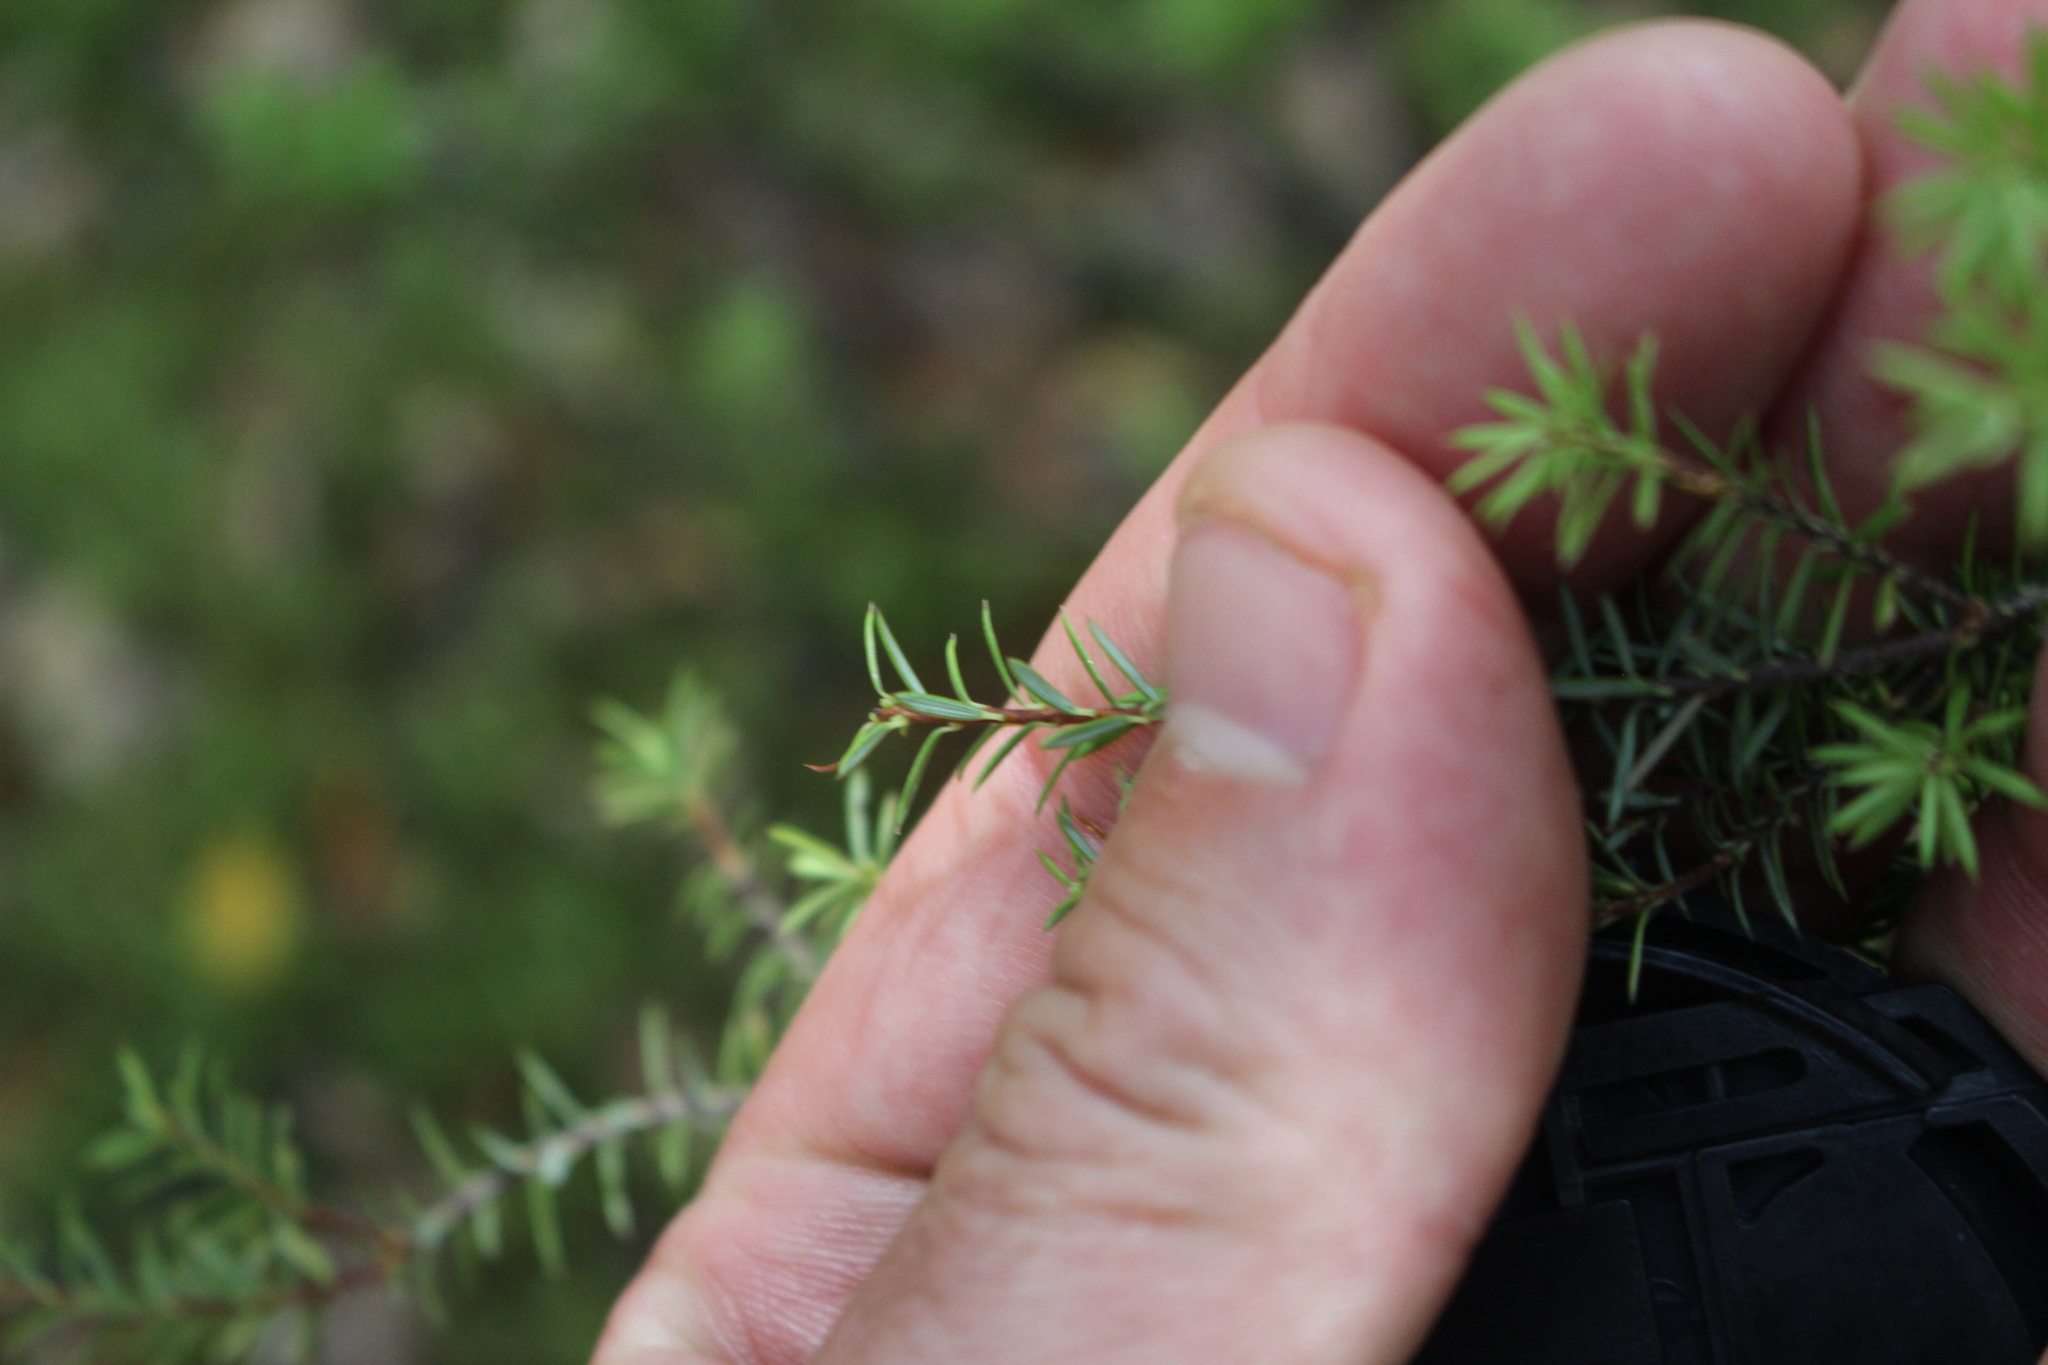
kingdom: Plantae
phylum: Tracheophyta
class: Magnoliopsida
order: Ericales
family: Ericaceae
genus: Leptecophylla
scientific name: Leptecophylla juniperina
